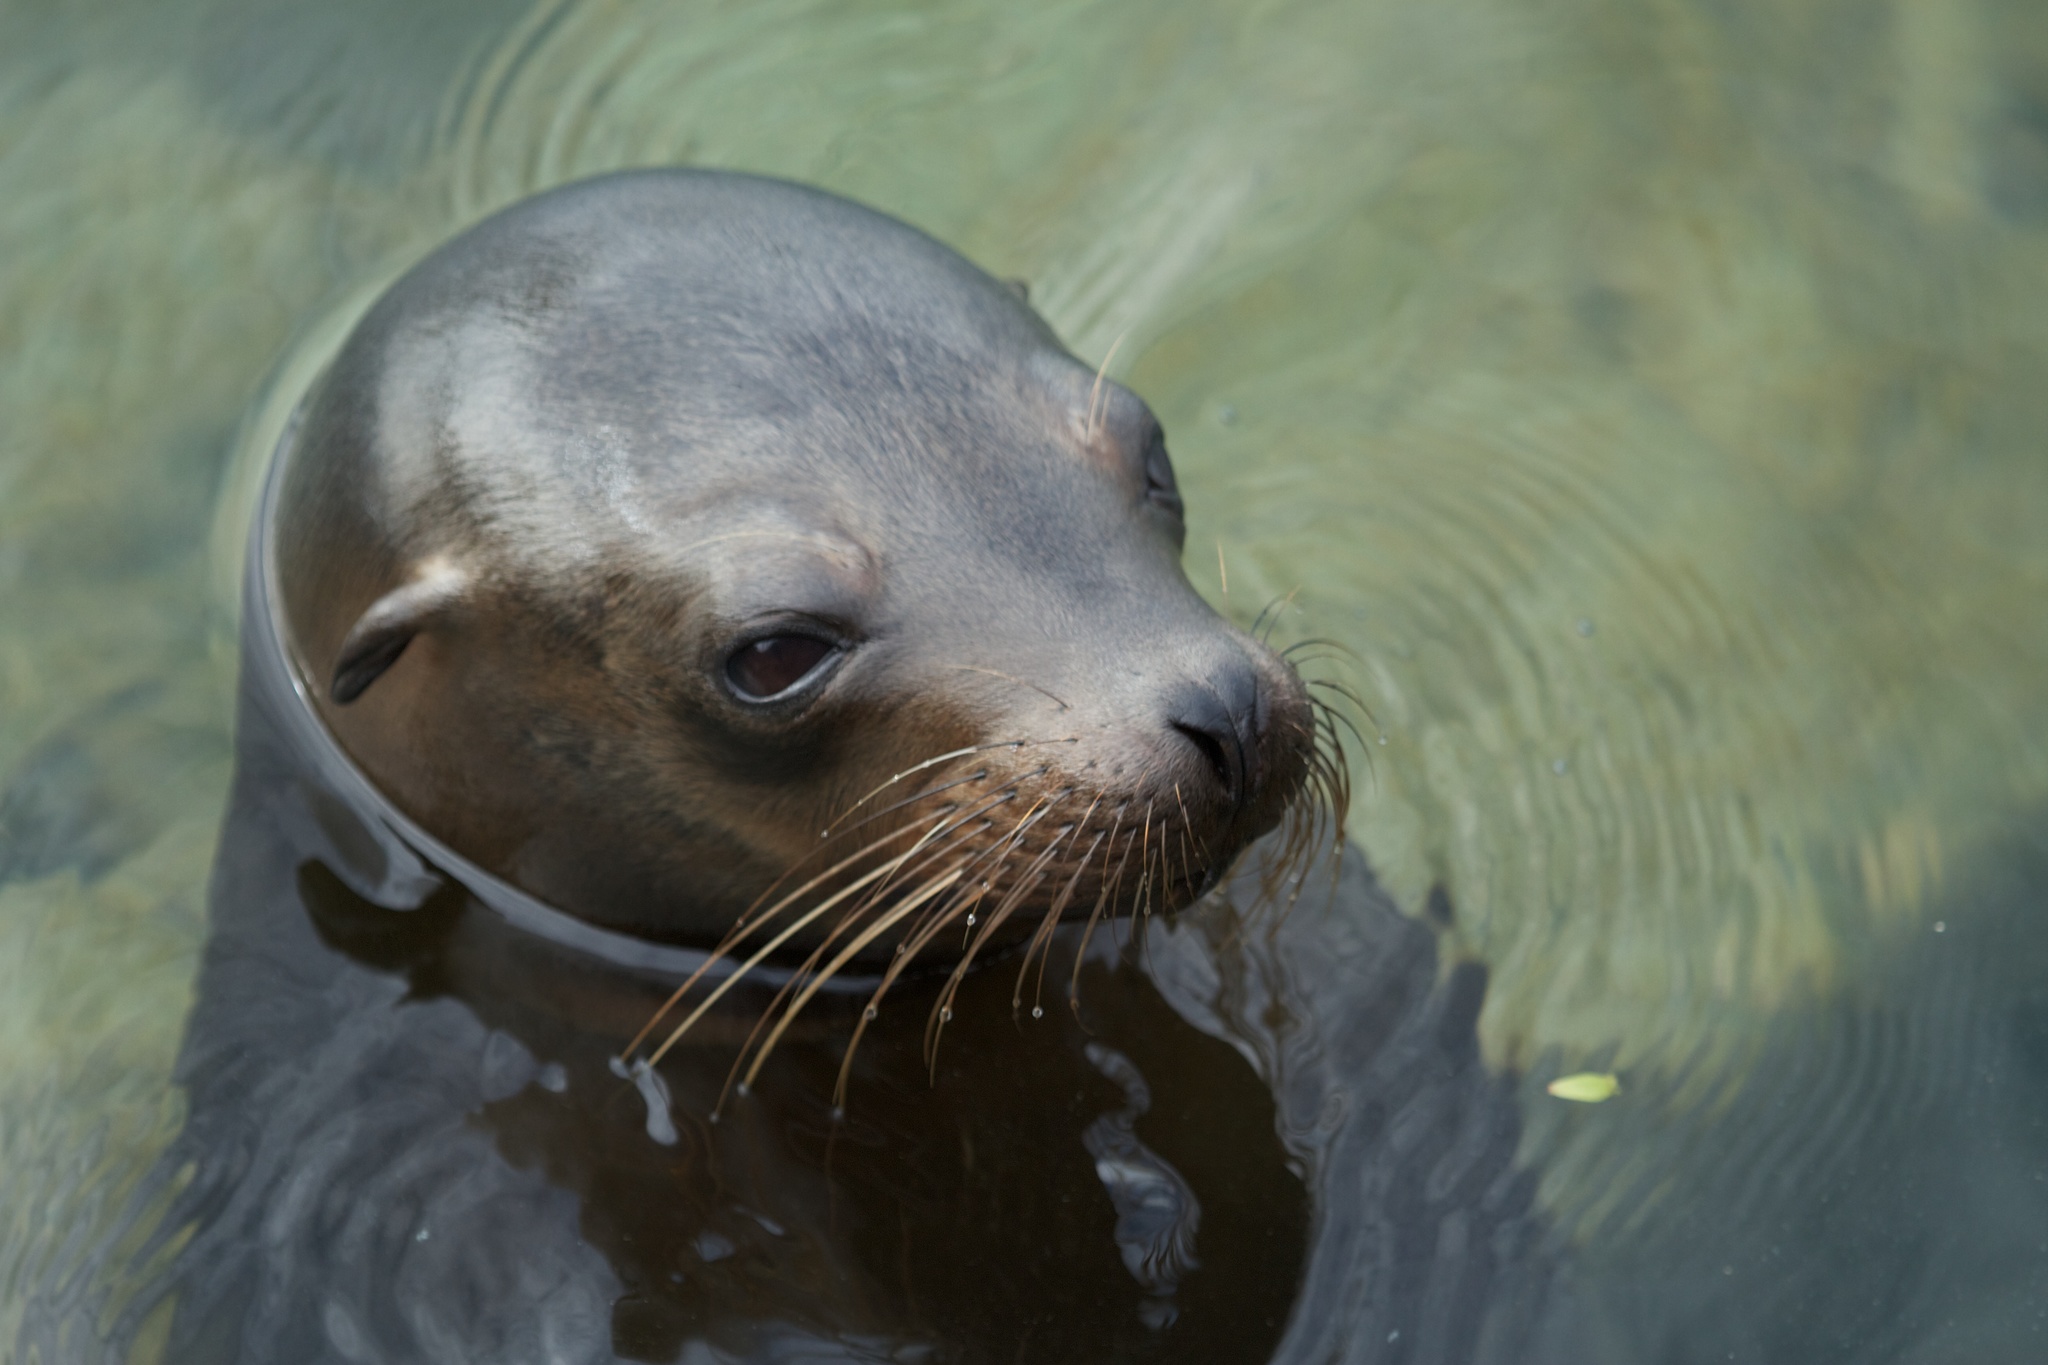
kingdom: Animalia
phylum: Chordata
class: Mammalia
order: Carnivora
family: Otariidae
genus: Zalophus
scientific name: Zalophus wollebaeki
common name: Galapagos sea lion
